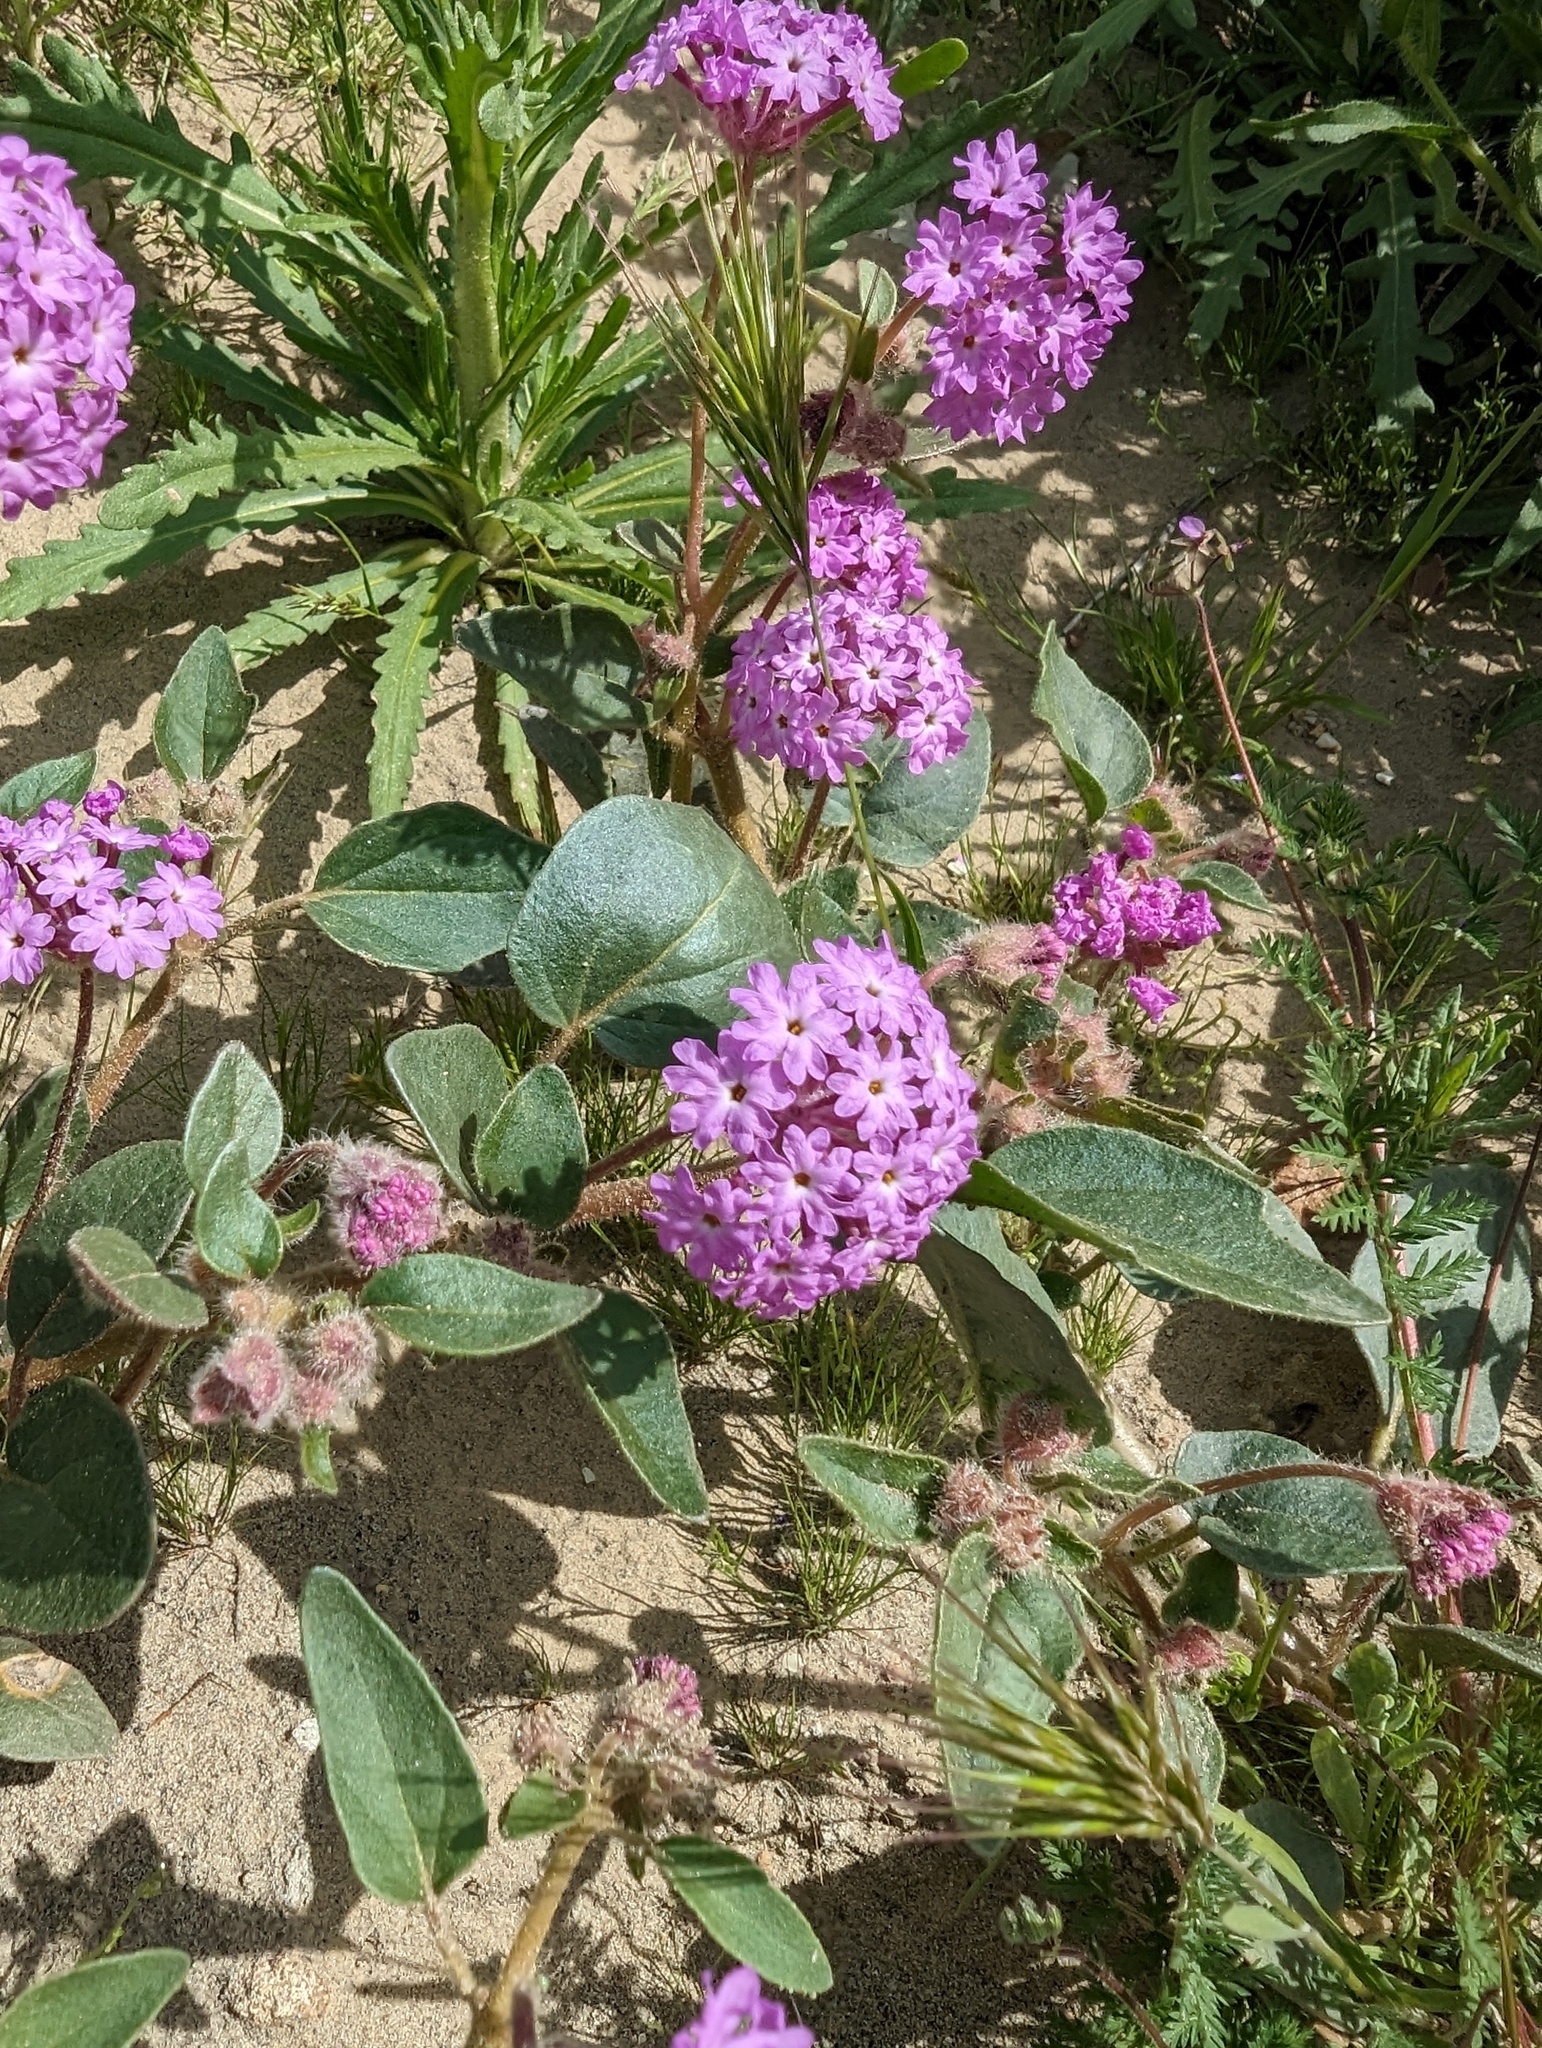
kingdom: Plantae
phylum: Tracheophyta
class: Magnoliopsida
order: Caryophyllales
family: Nyctaginaceae
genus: Abronia
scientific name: Abronia pogonantha
